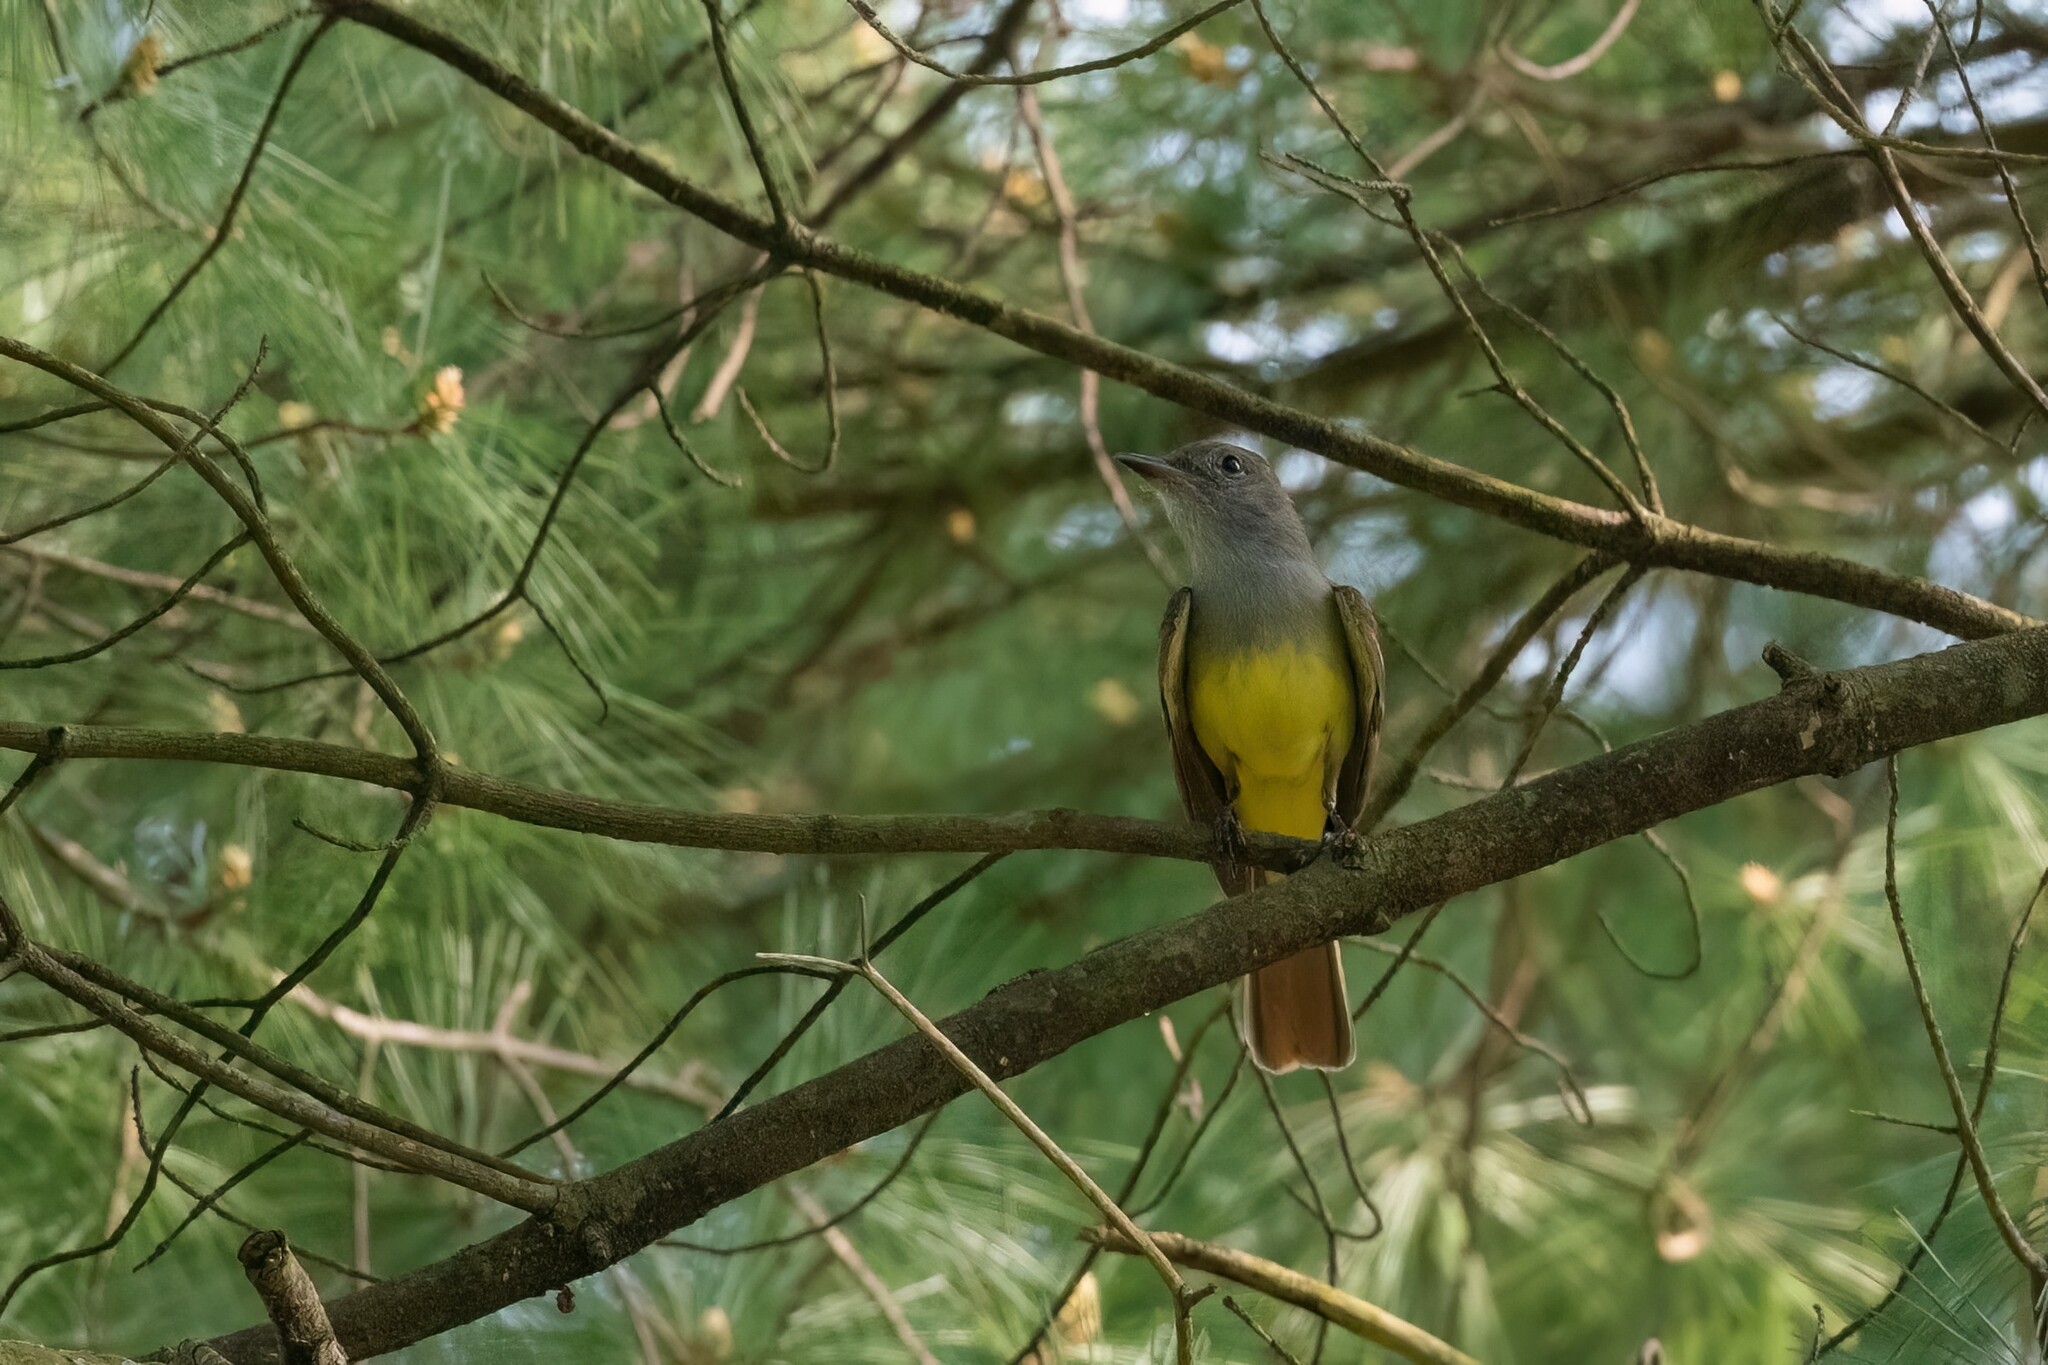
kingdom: Animalia
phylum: Chordata
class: Aves
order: Passeriformes
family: Tyrannidae
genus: Myiarchus
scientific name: Myiarchus crinitus
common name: Great crested flycatcher
